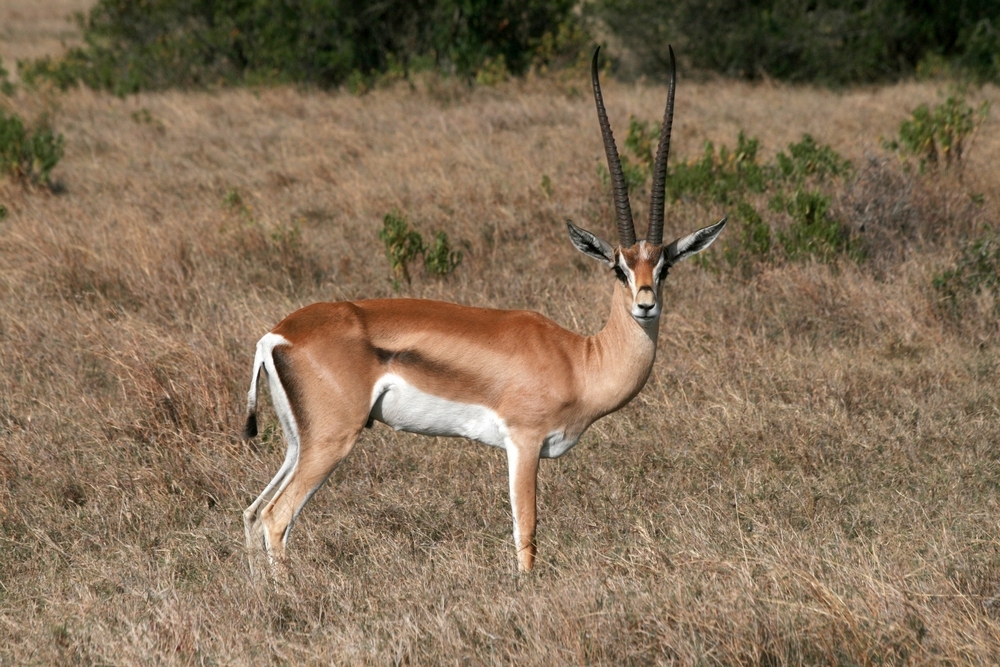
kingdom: Animalia
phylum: Chordata
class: Mammalia
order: Artiodactyla
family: Bovidae
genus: Nanger
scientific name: Nanger granti
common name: Grant's gazelle
